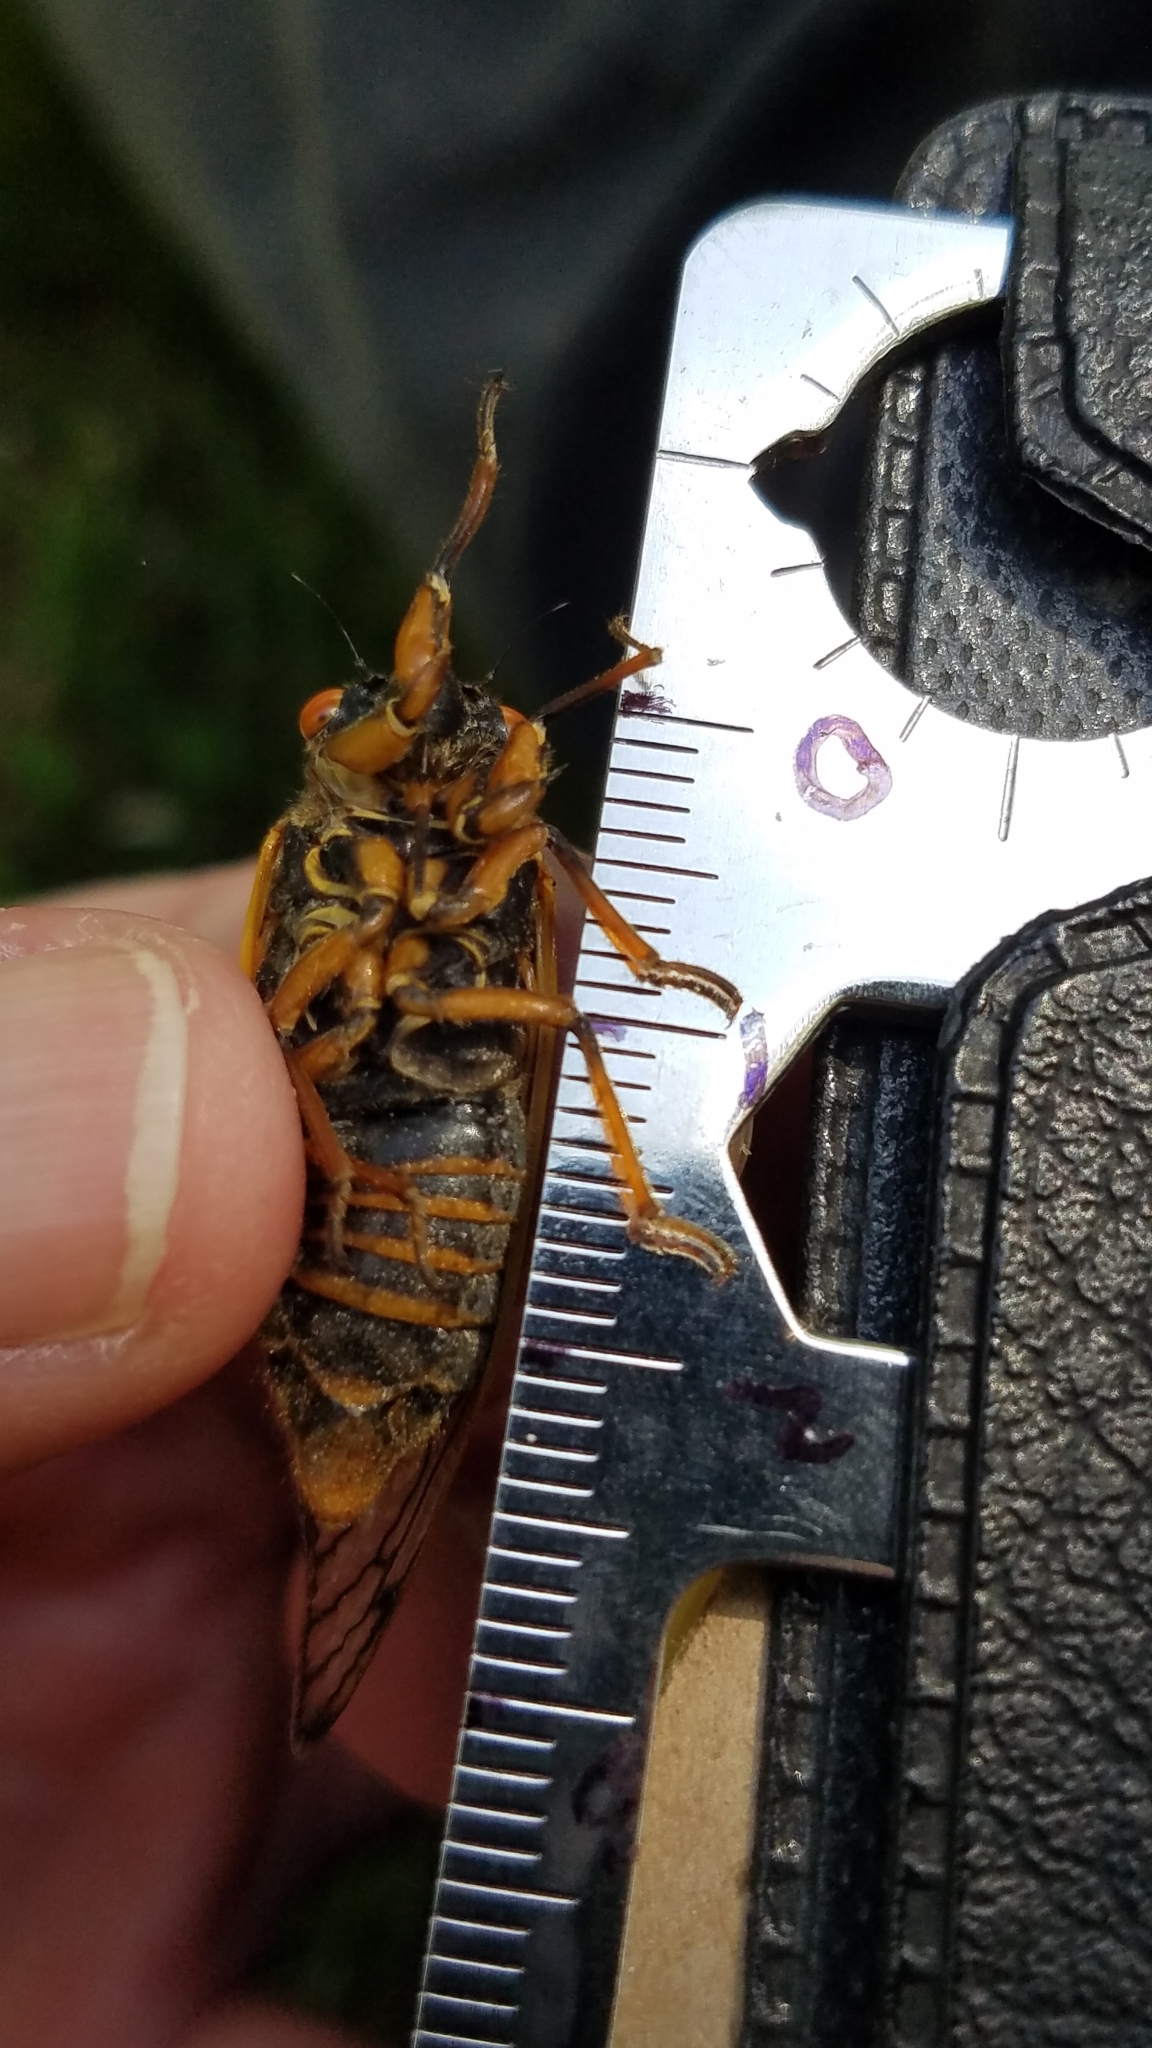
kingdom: Animalia
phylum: Arthropoda
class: Insecta
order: Hemiptera
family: Cicadidae
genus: Magicicada
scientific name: Magicicada septendecim
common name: Periodical cicada
